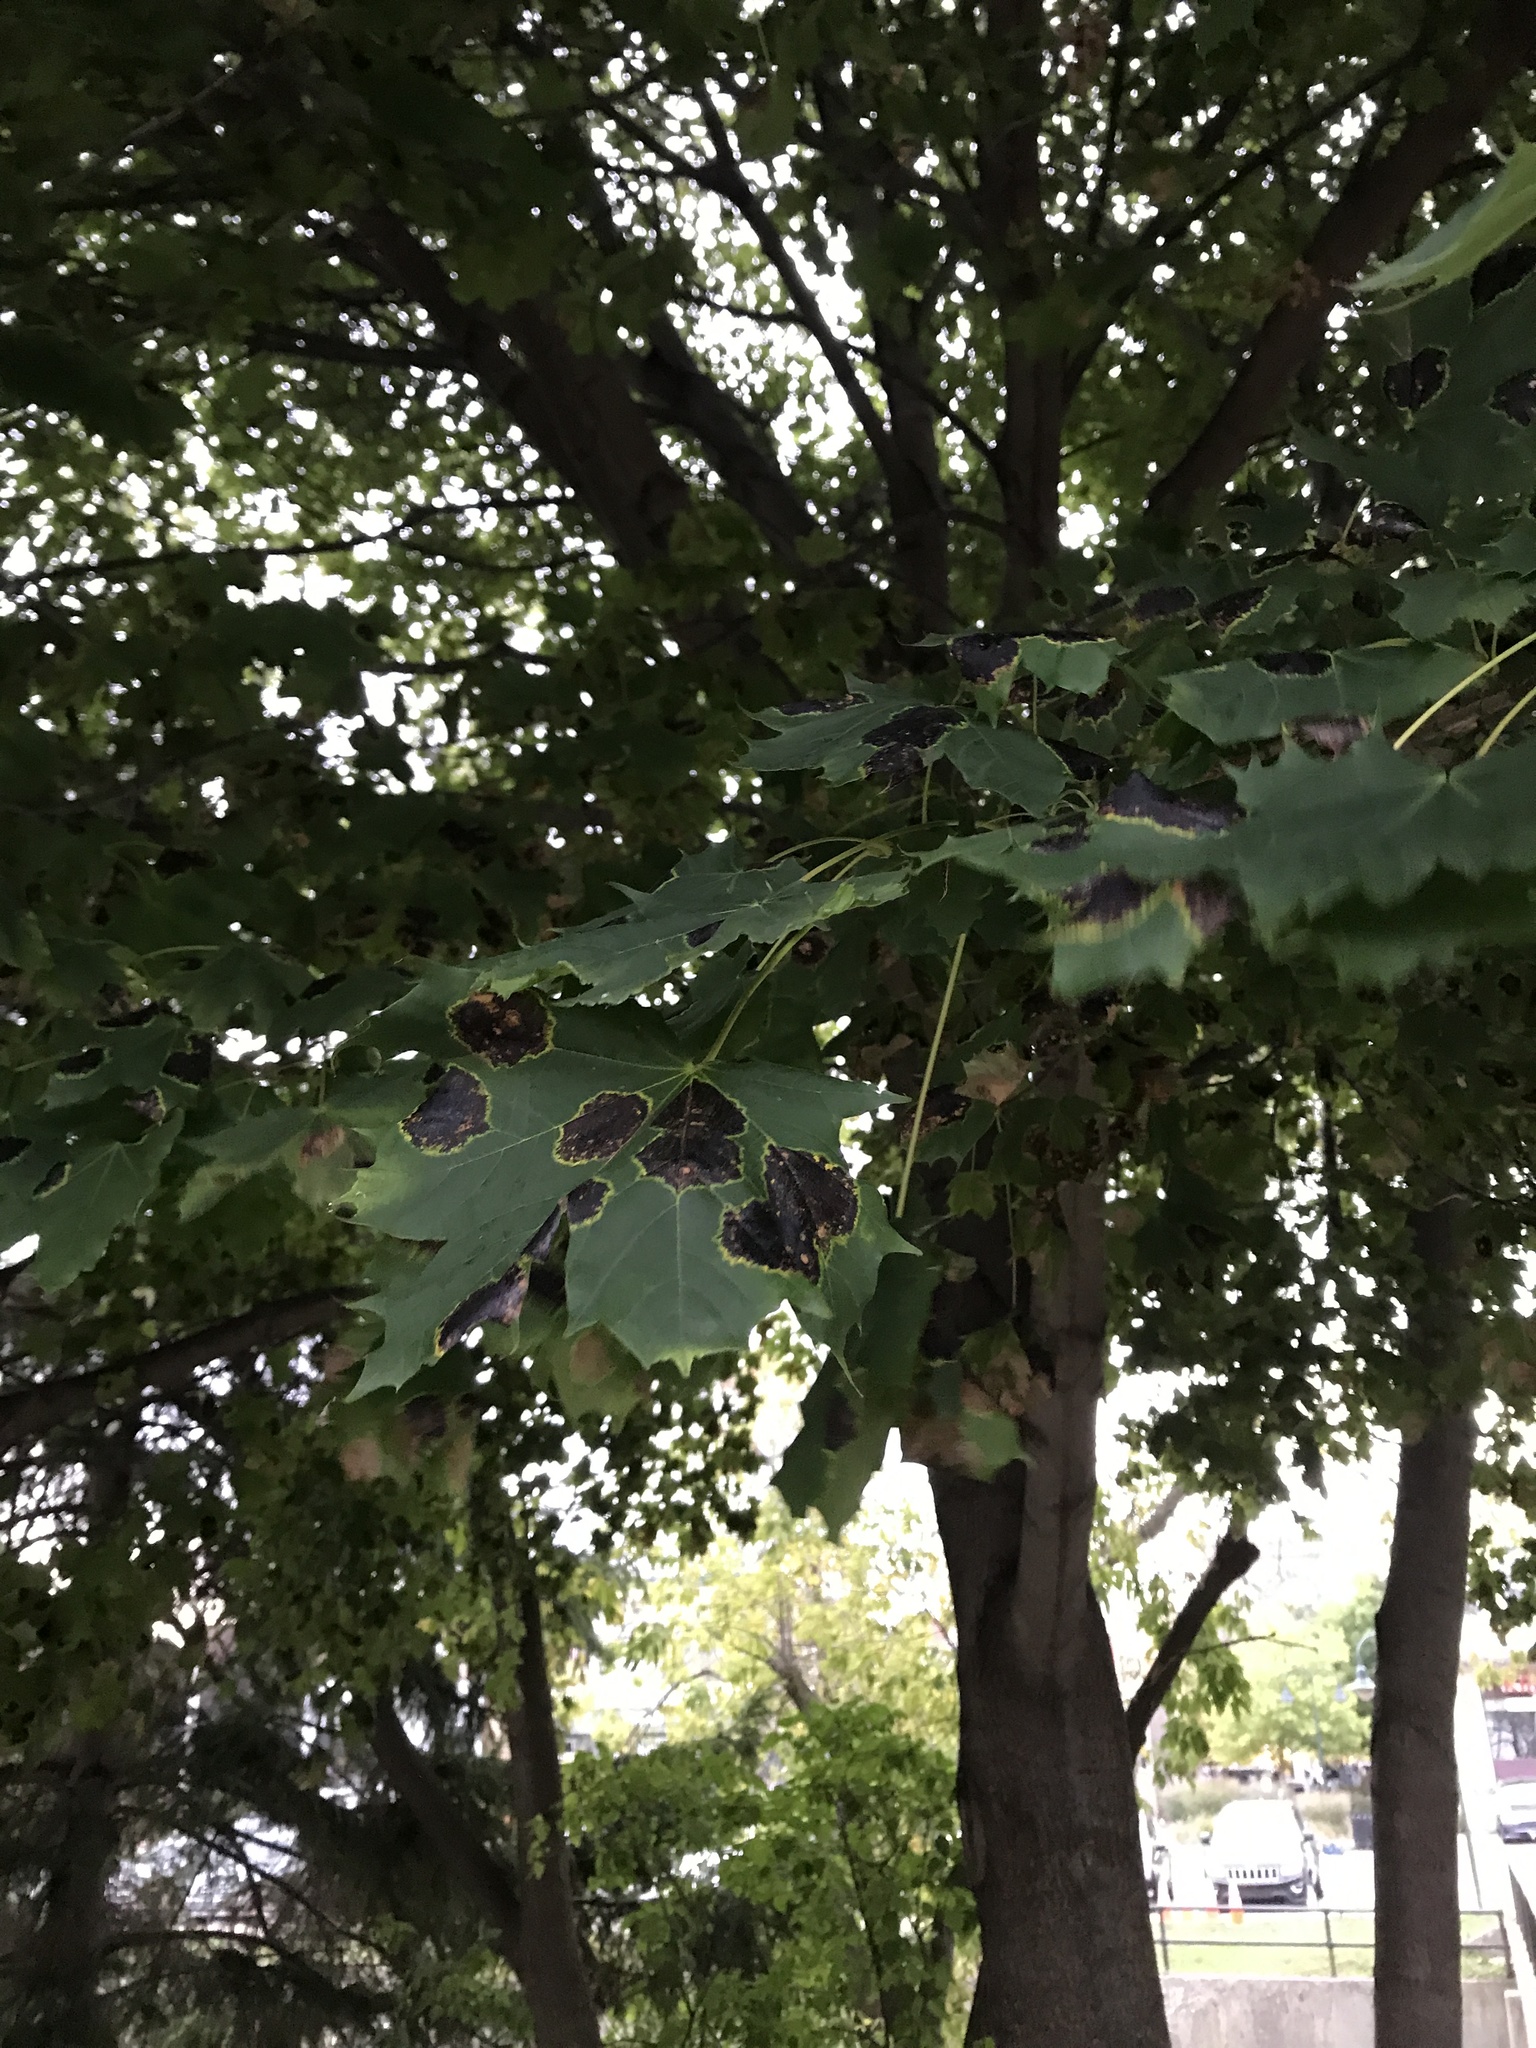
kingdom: Fungi
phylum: Ascomycota
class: Leotiomycetes
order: Rhytismatales
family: Rhytismataceae
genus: Rhytisma
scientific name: Rhytisma acerinum
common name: European tar spot
